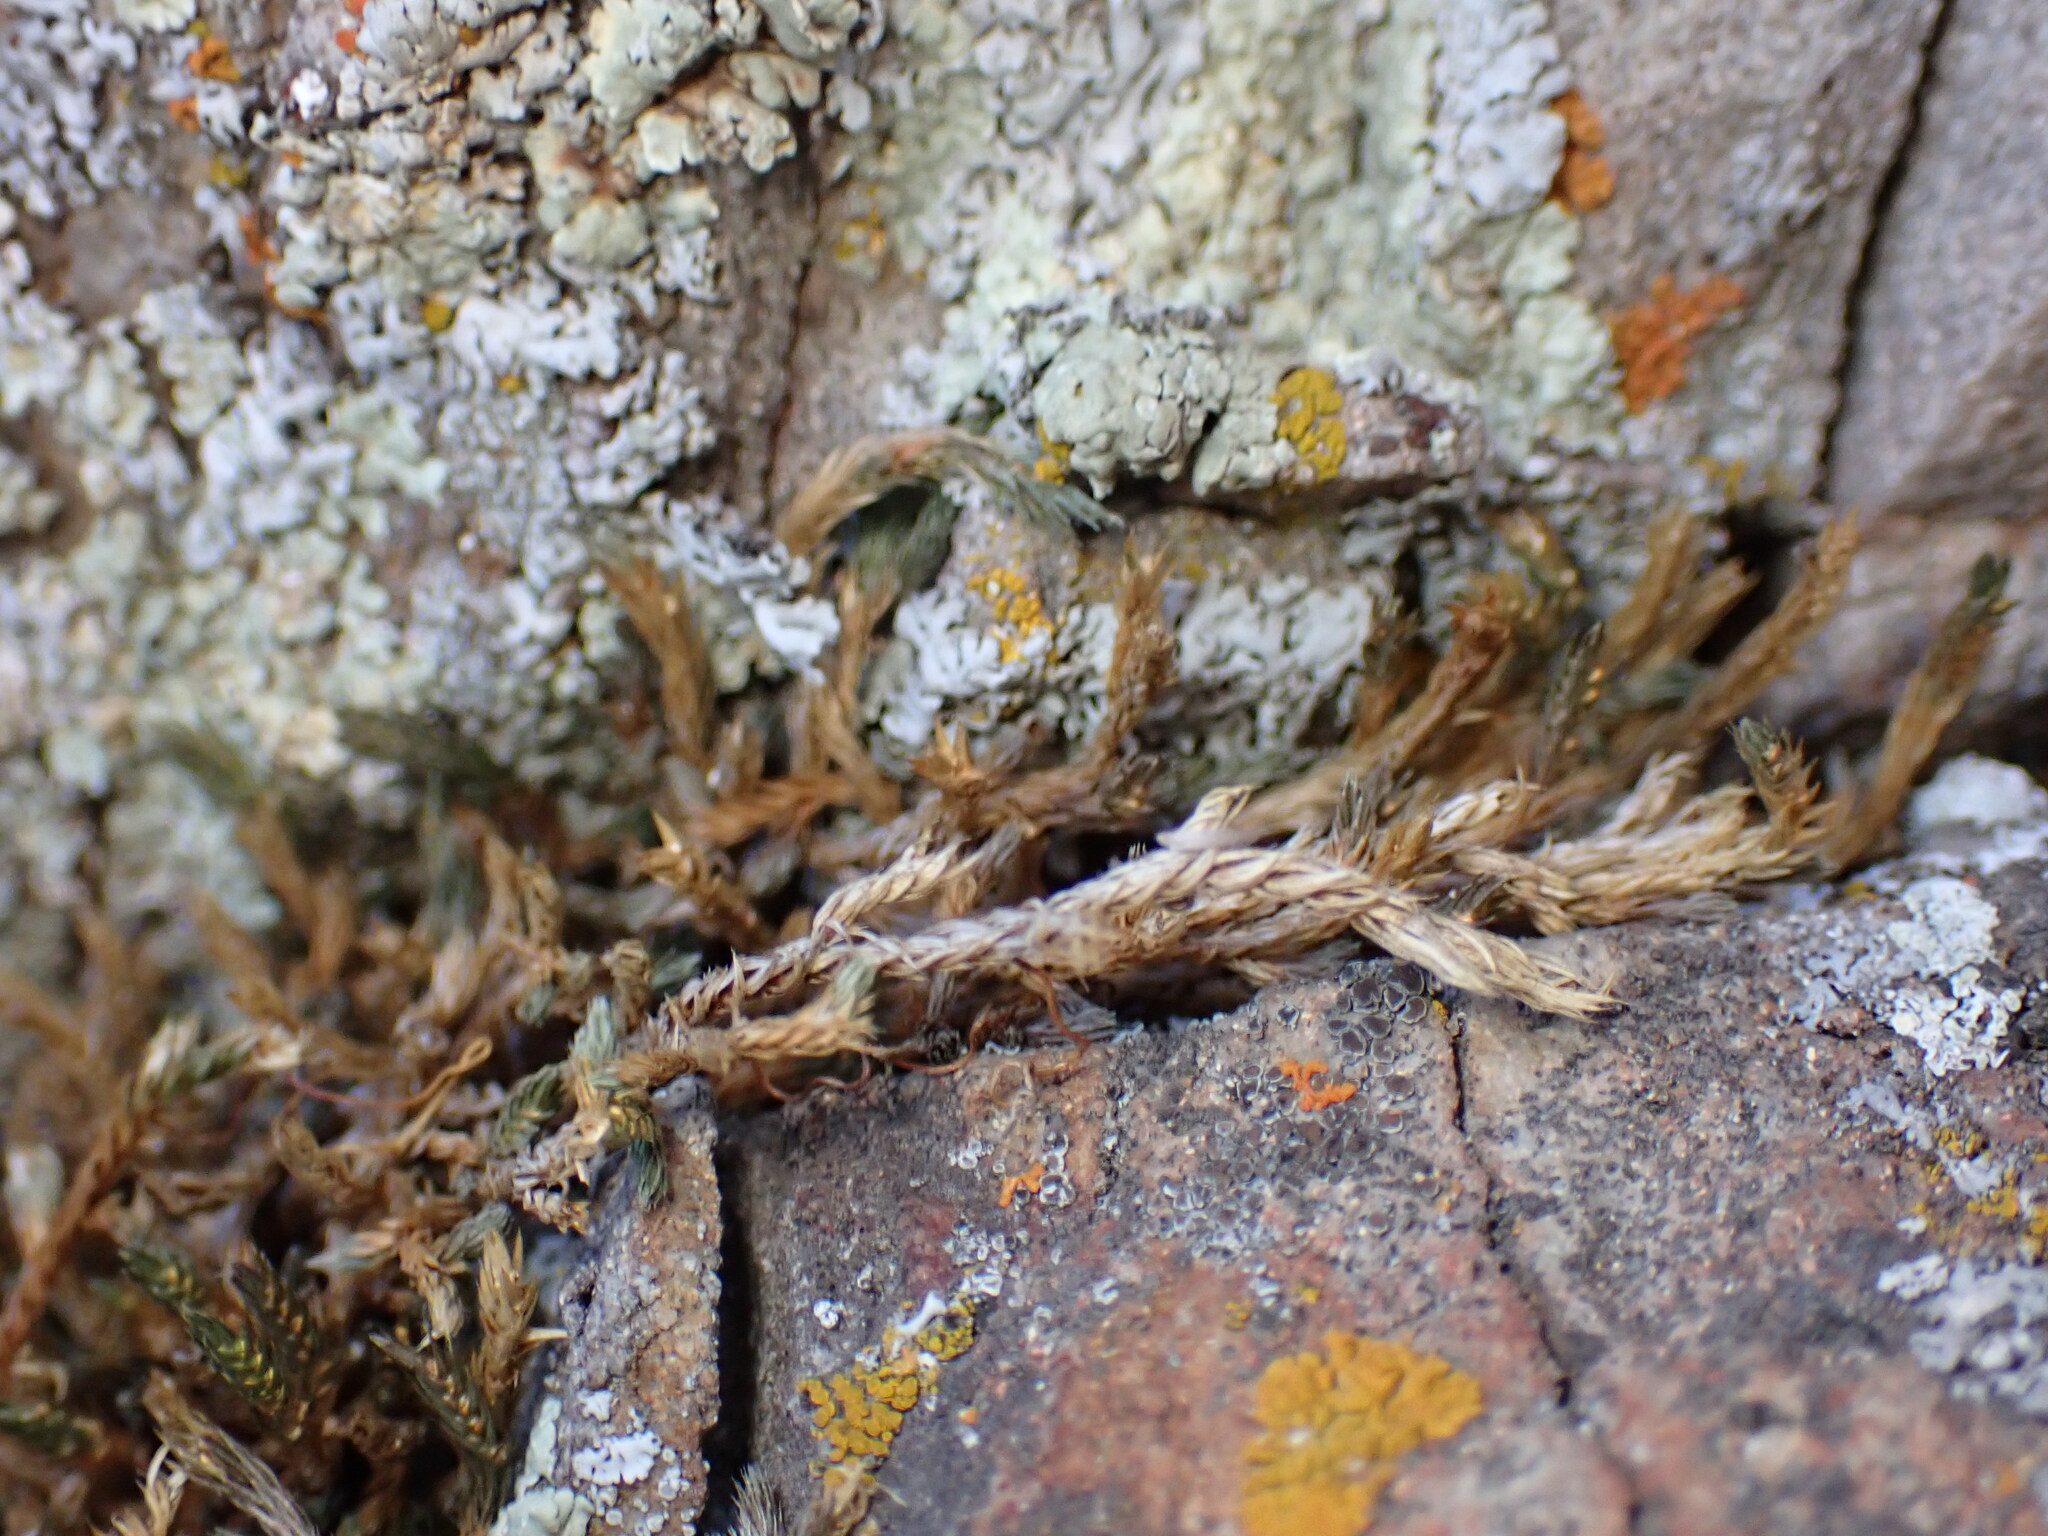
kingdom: Plantae
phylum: Tracheophyta
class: Lycopodiopsida
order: Selaginellales
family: Selaginellaceae
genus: Selaginella
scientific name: Selaginella underwoodii
